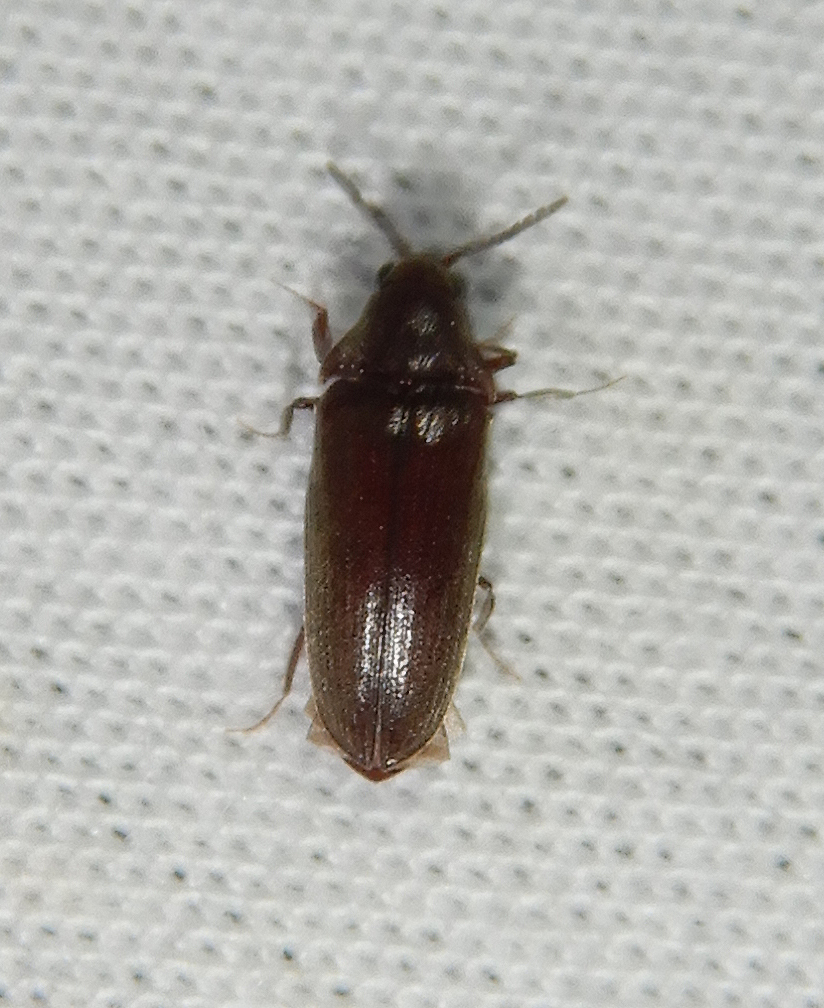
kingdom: Animalia
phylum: Arthropoda
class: Insecta
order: Coleoptera
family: Throscidae
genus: Pactopus
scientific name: Pactopus hornii
